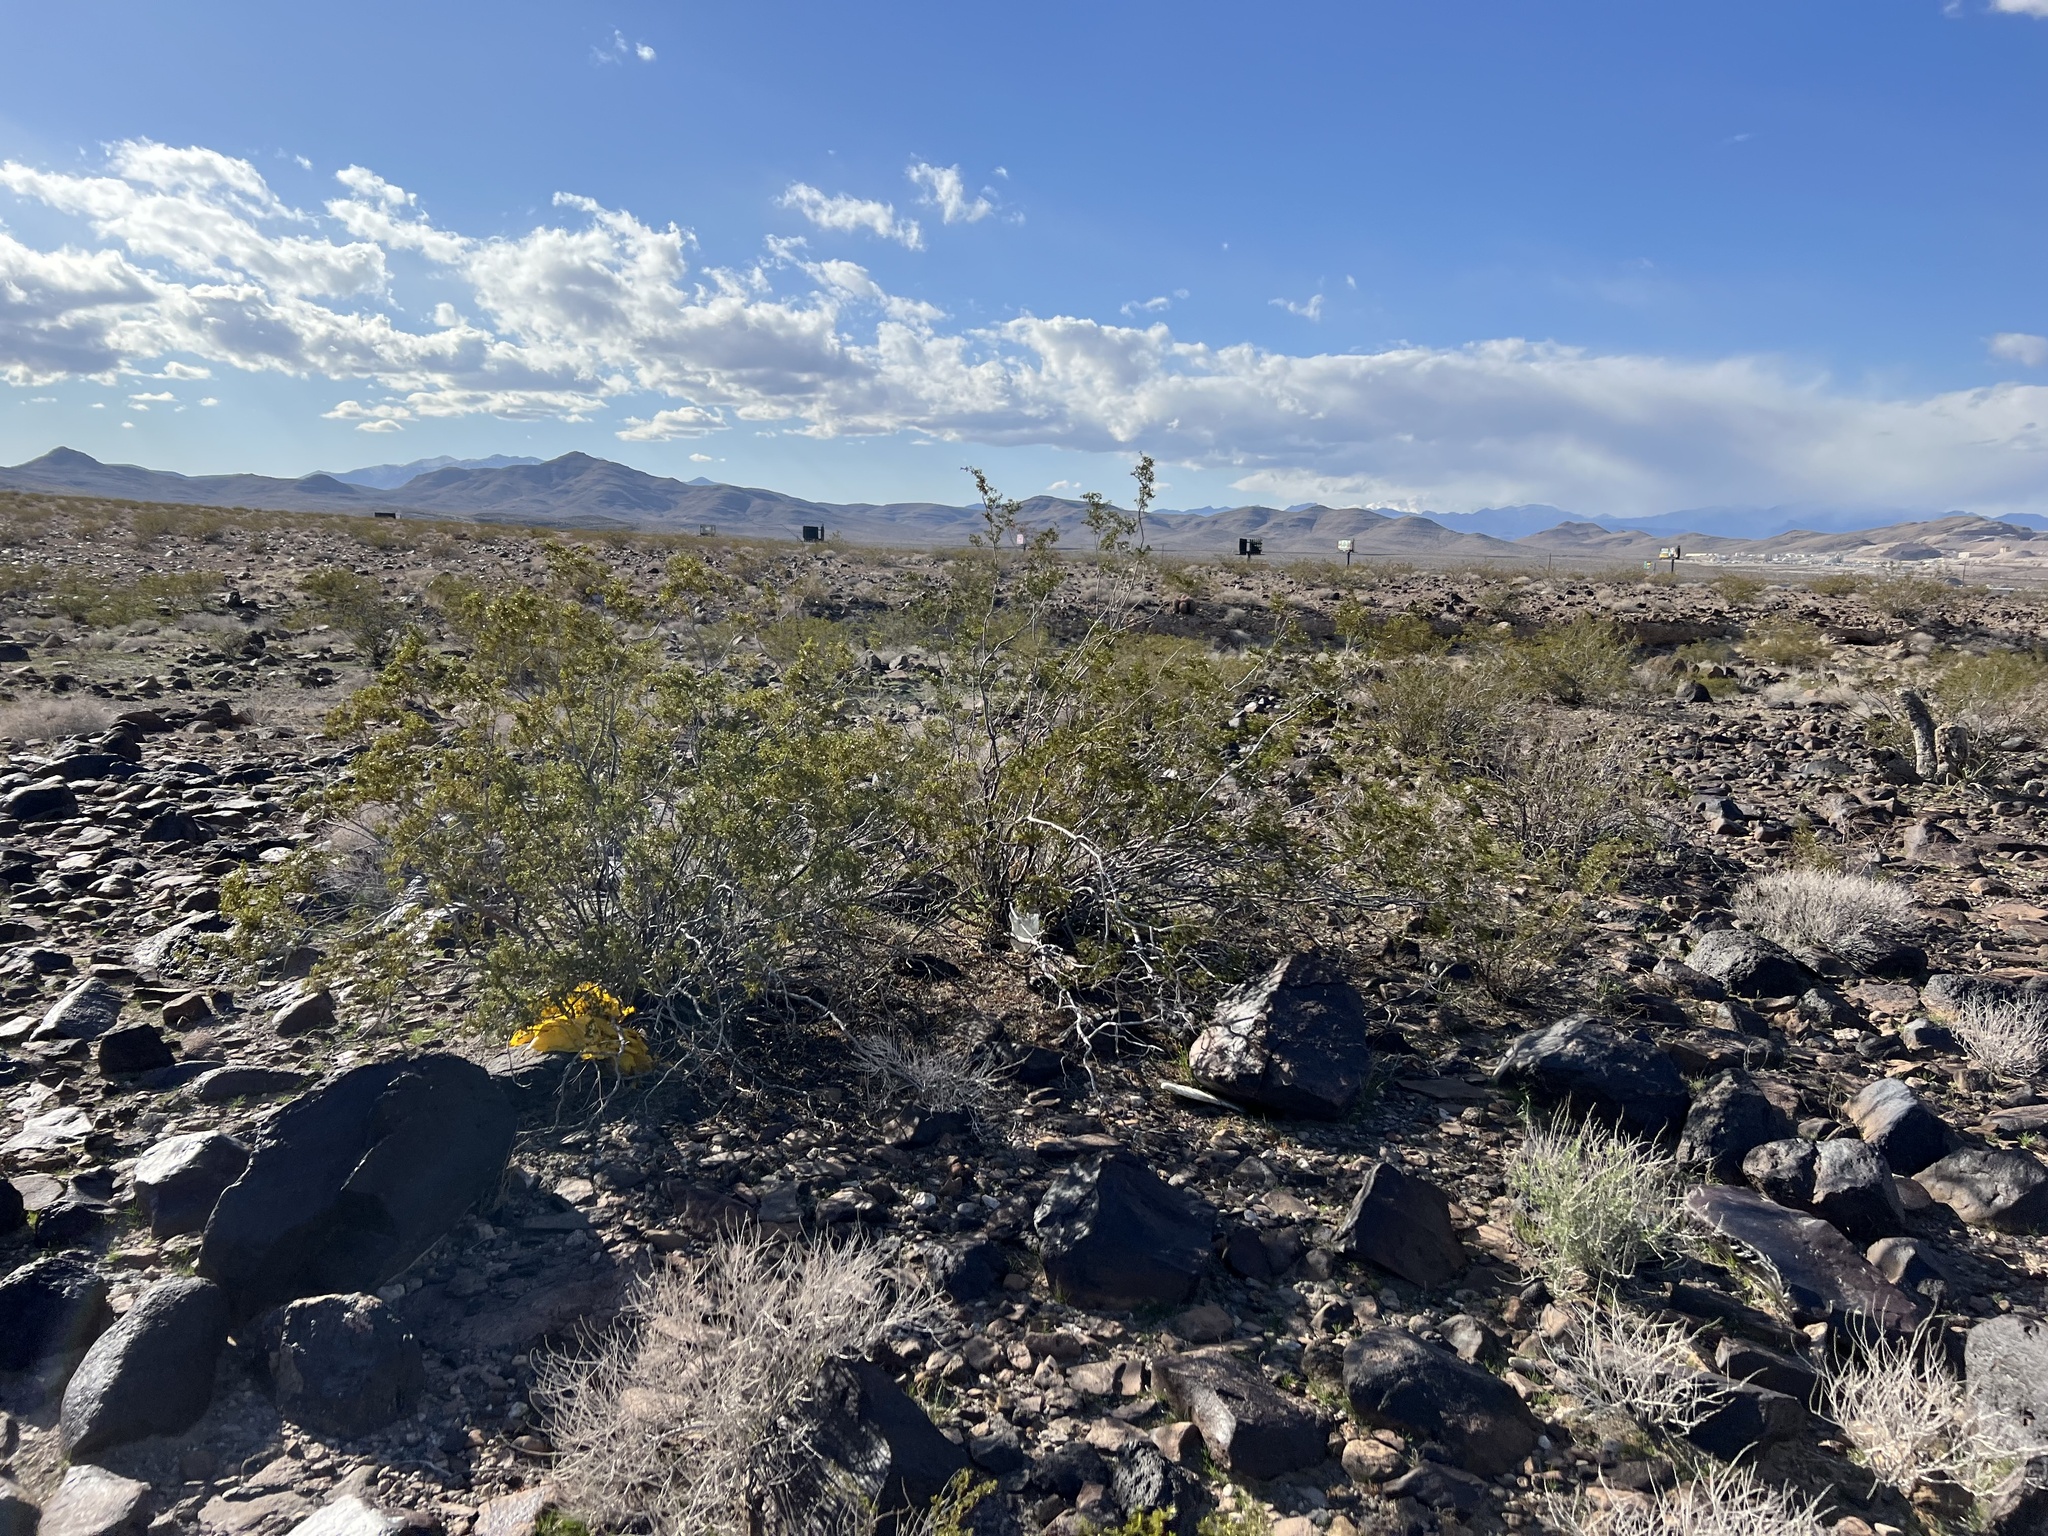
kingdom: Plantae
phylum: Tracheophyta
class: Magnoliopsida
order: Zygophyllales
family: Zygophyllaceae
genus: Larrea
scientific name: Larrea tridentata
